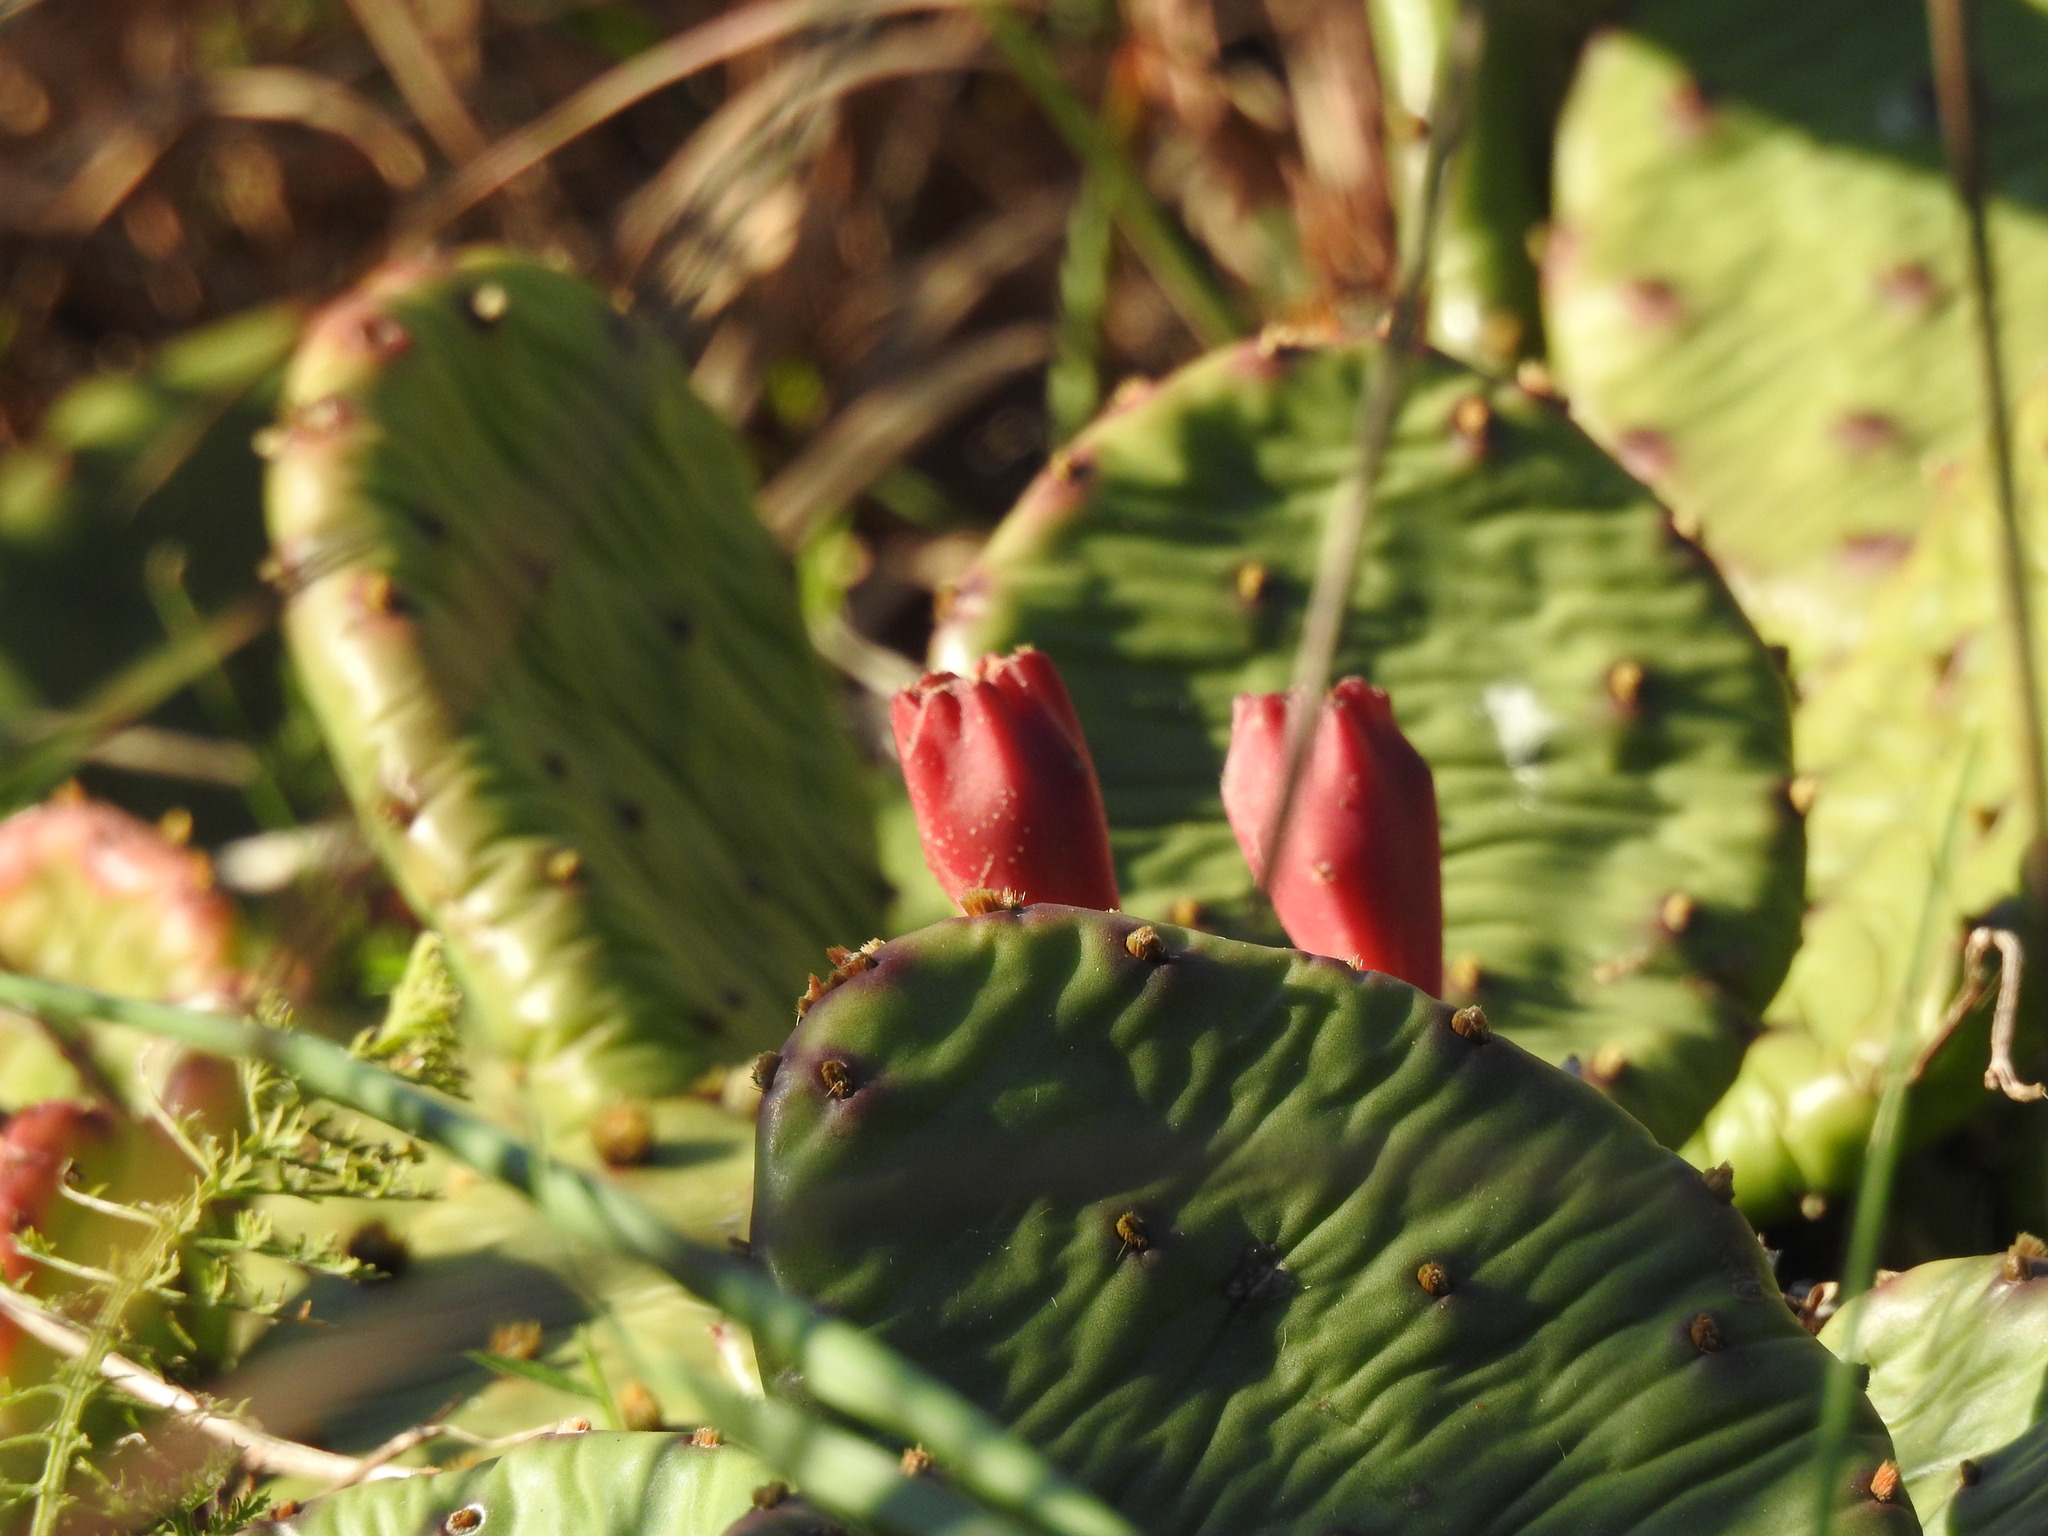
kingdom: Plantae
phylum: Tracheophyta
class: Magnoliopsida
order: Caryophyllales
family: Cactaceae
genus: Opuntia
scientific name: Opuntia humifusa
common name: Eastern prickly-pear
